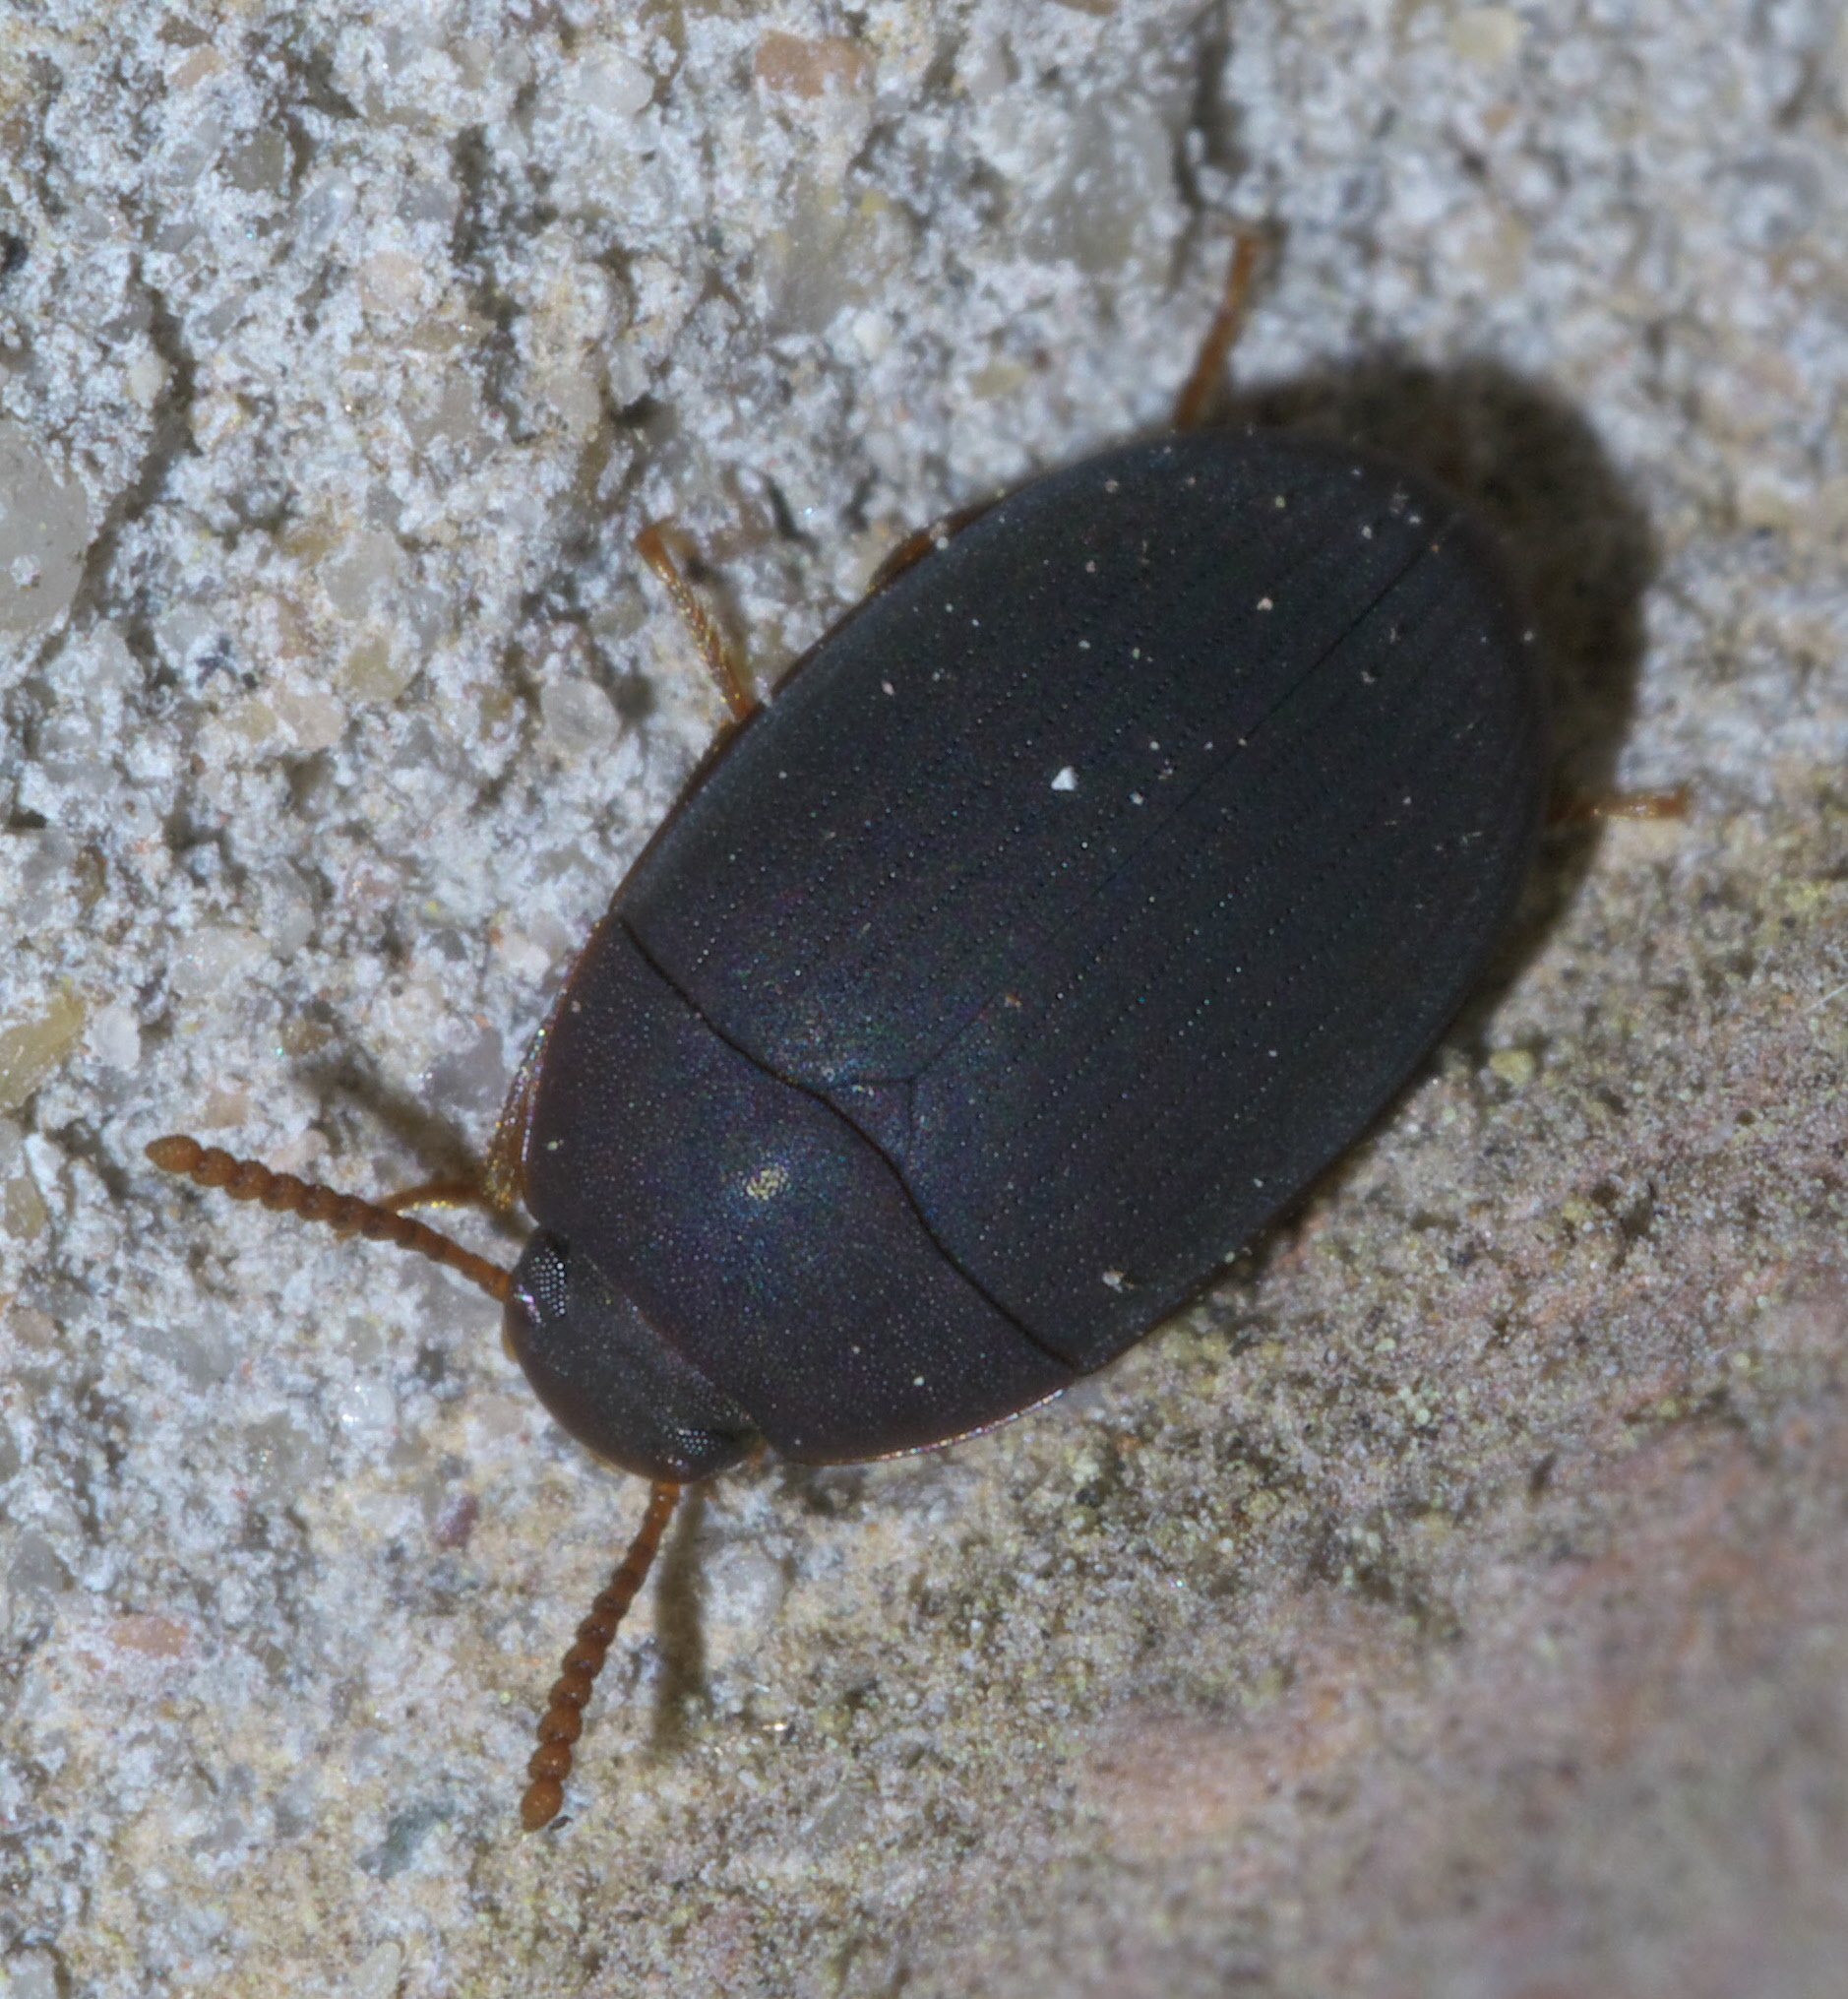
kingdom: Animalia
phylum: Arthropoda
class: Insecta
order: Coleoptera
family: Tenebrionidae
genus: Platydema
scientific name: Platydema ruficornis
